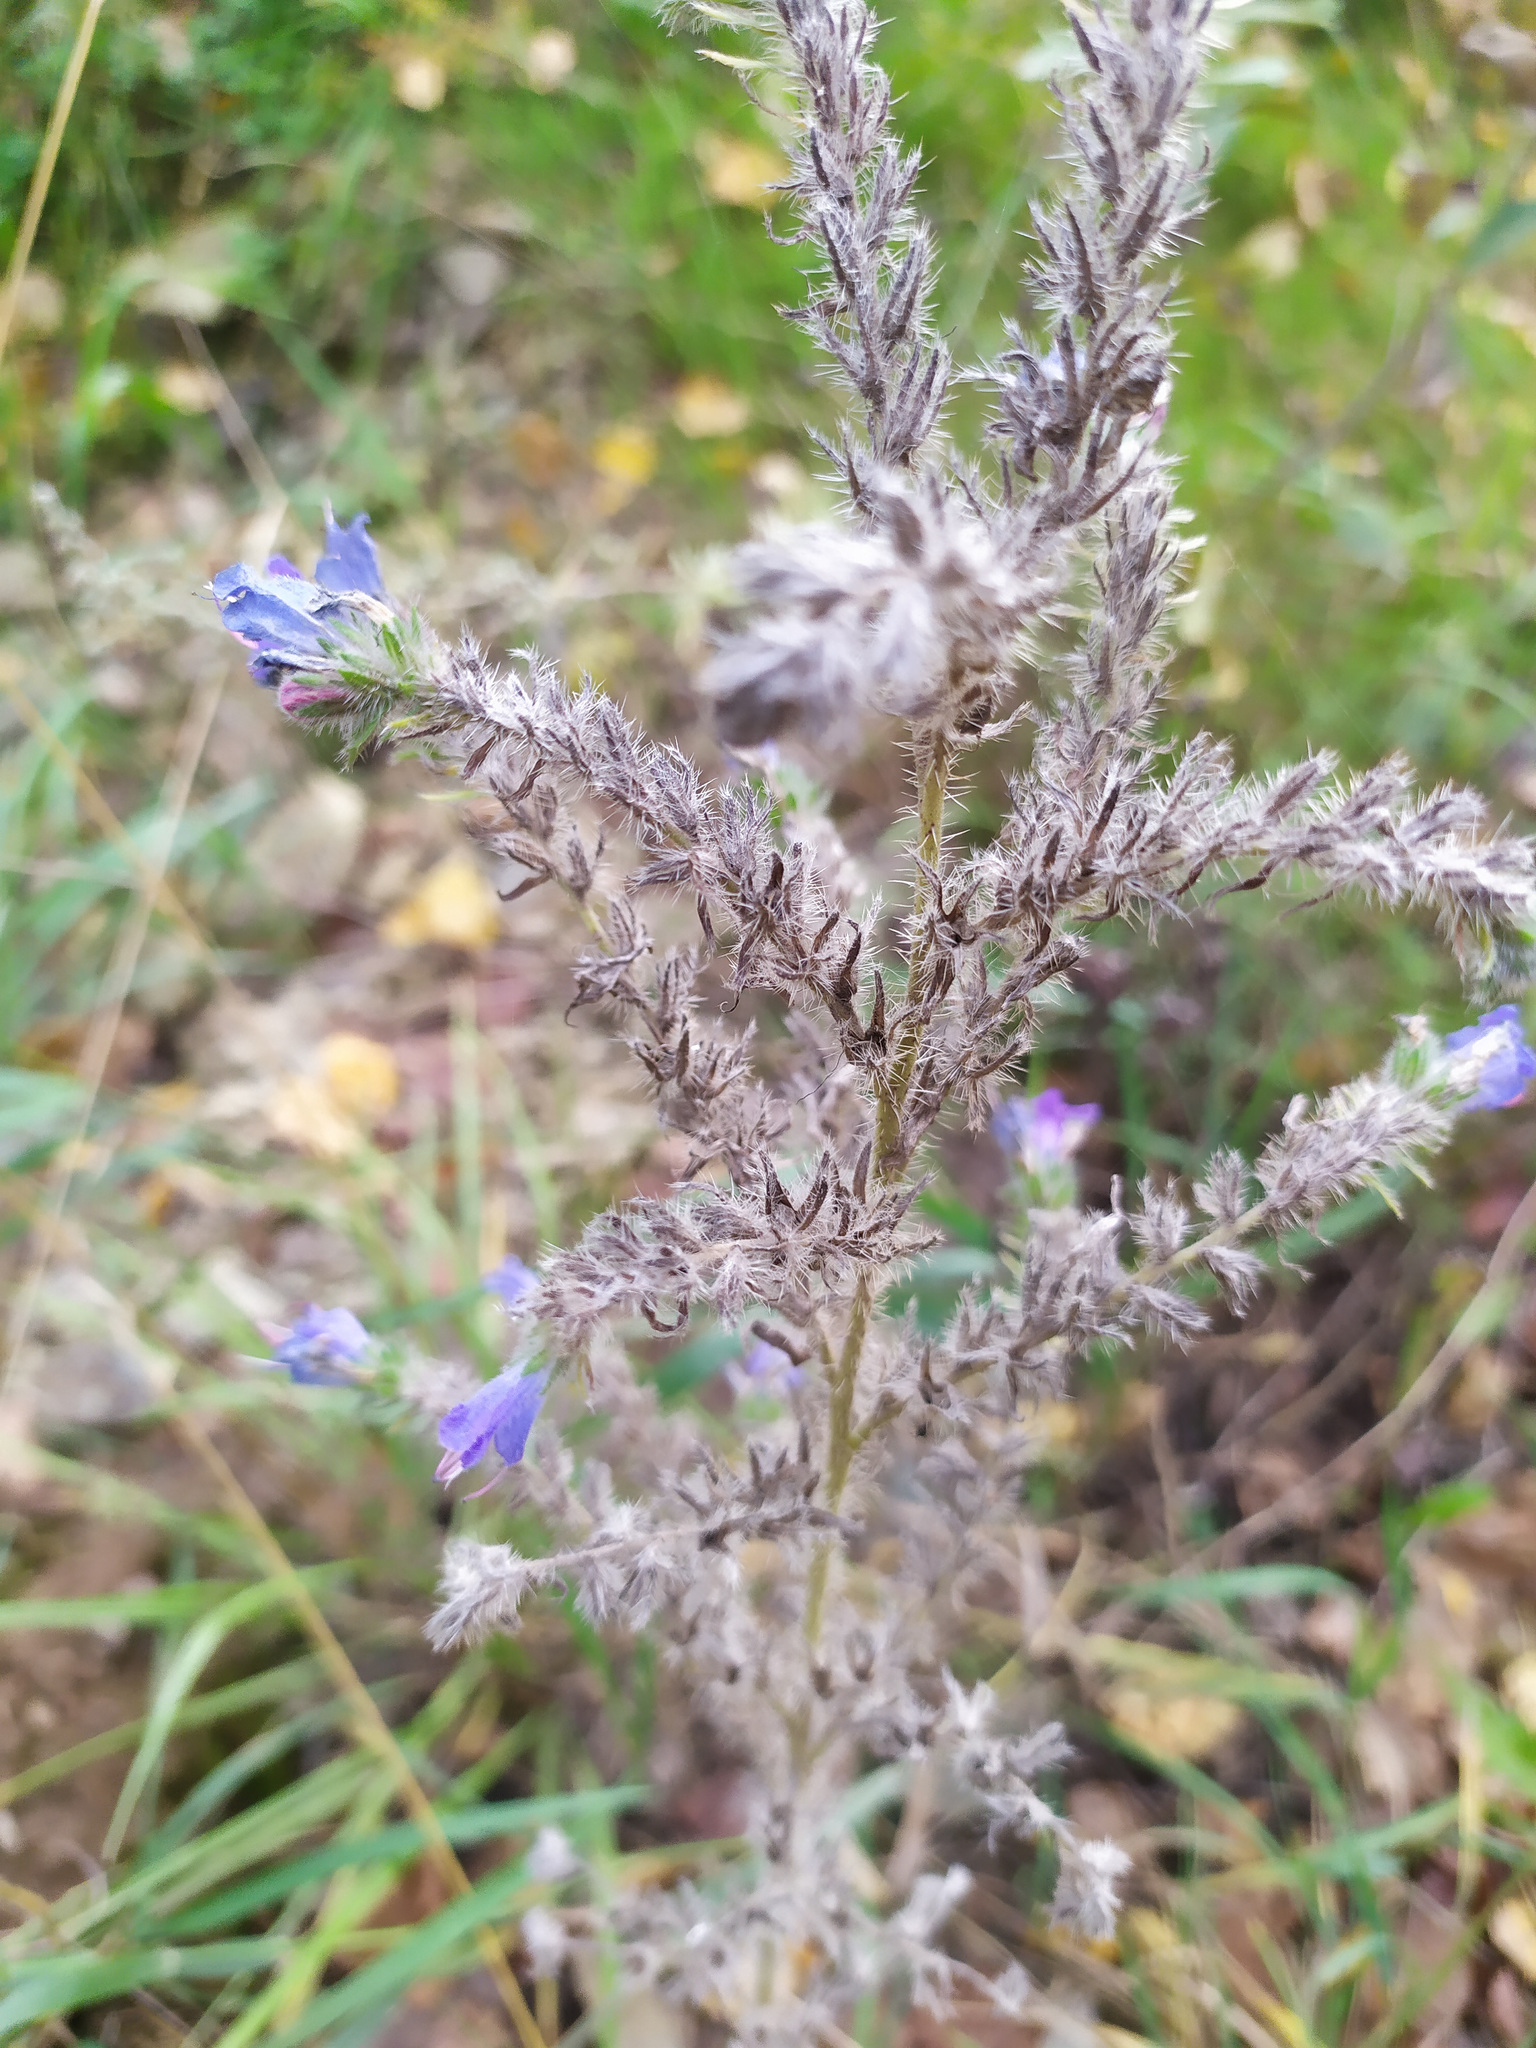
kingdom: Plantae
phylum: Tracheophyta
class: Magnoliopsida
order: Boraginales
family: Boraginaceae
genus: Echium
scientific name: Echium vulgare
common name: Common viper's bugloss
